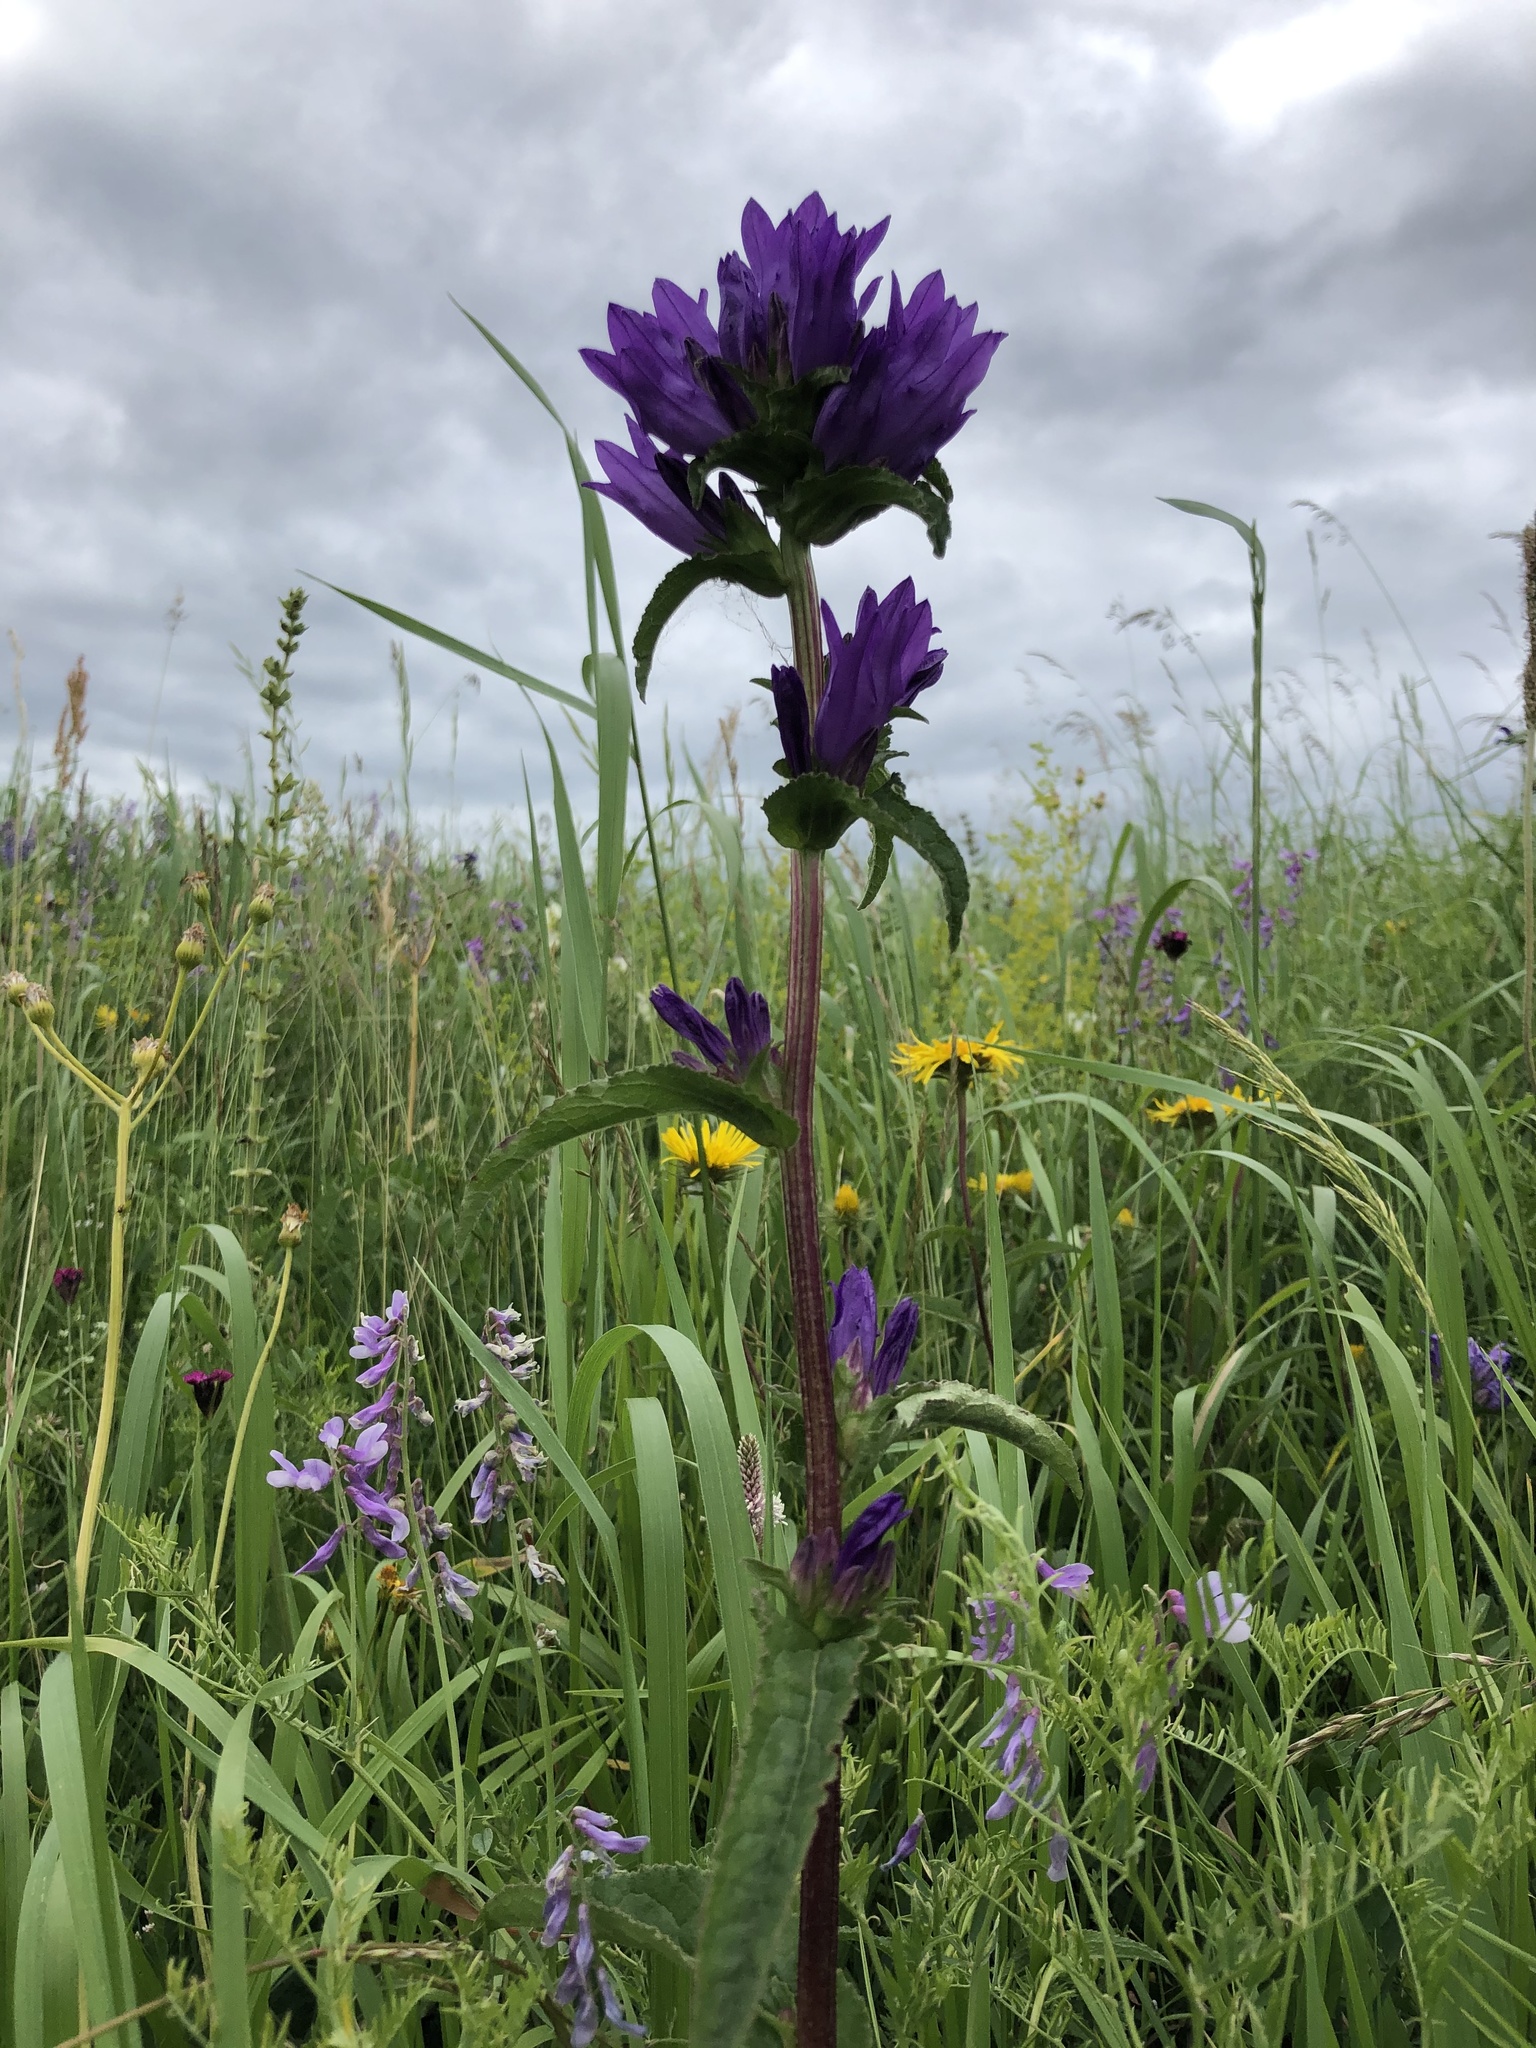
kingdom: Plantae
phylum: Tracheophyta
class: Magnoliopsida
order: Asterales
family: Campanulaceae
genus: Campanula
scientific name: Campanula glomerata
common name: Clustered bellflower
